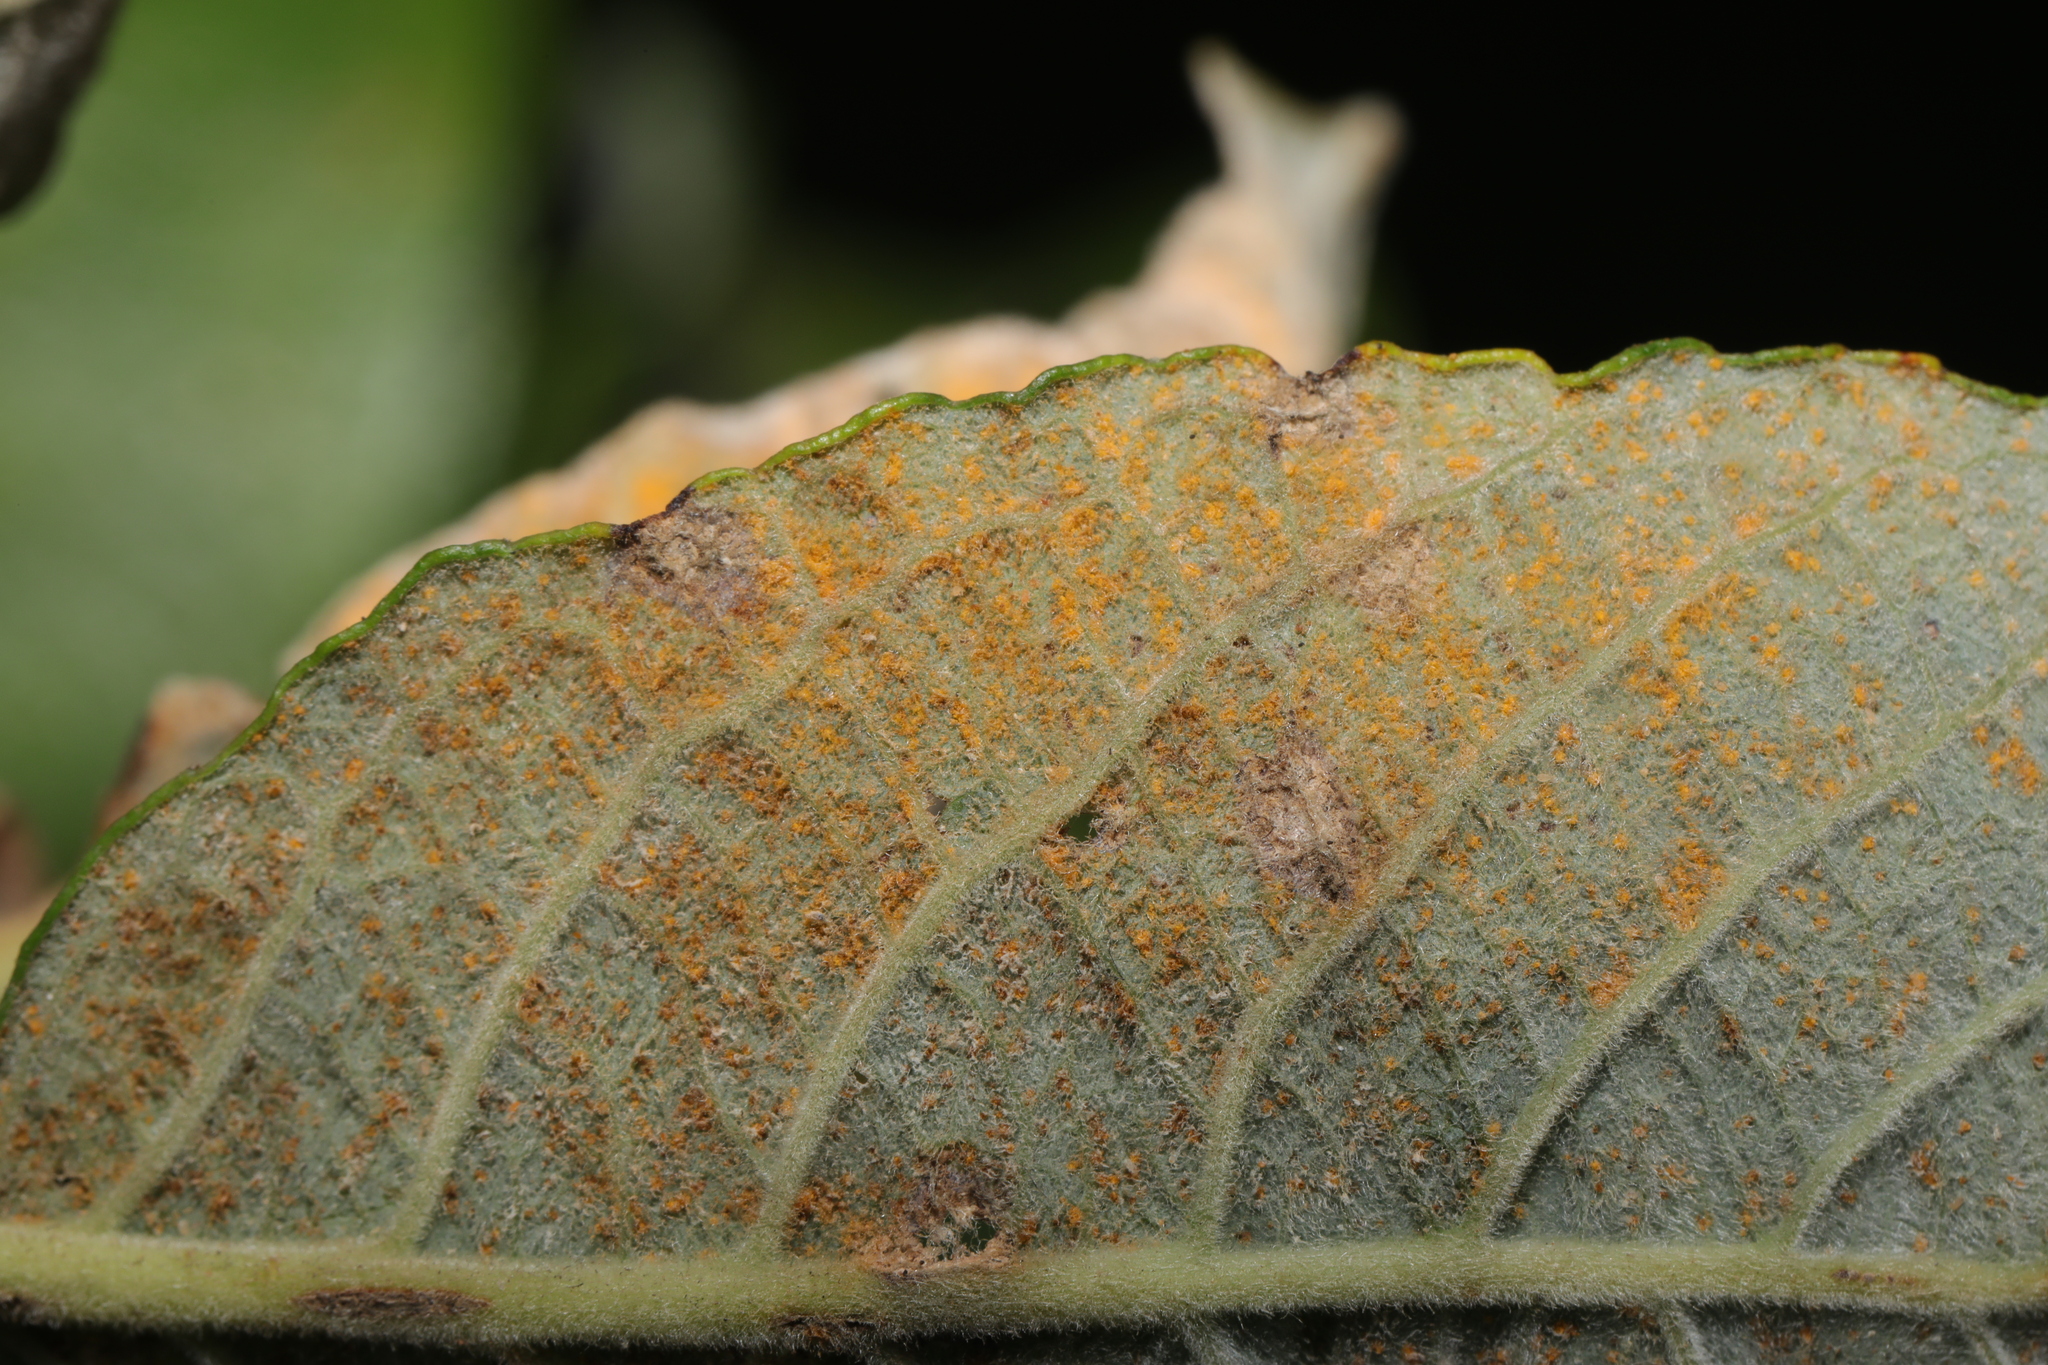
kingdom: Fungi
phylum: Basidiomycota
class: Pucciniomycetes
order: Pucciniales
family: Melampsoraceae
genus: Melampsora
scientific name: Melampsora
